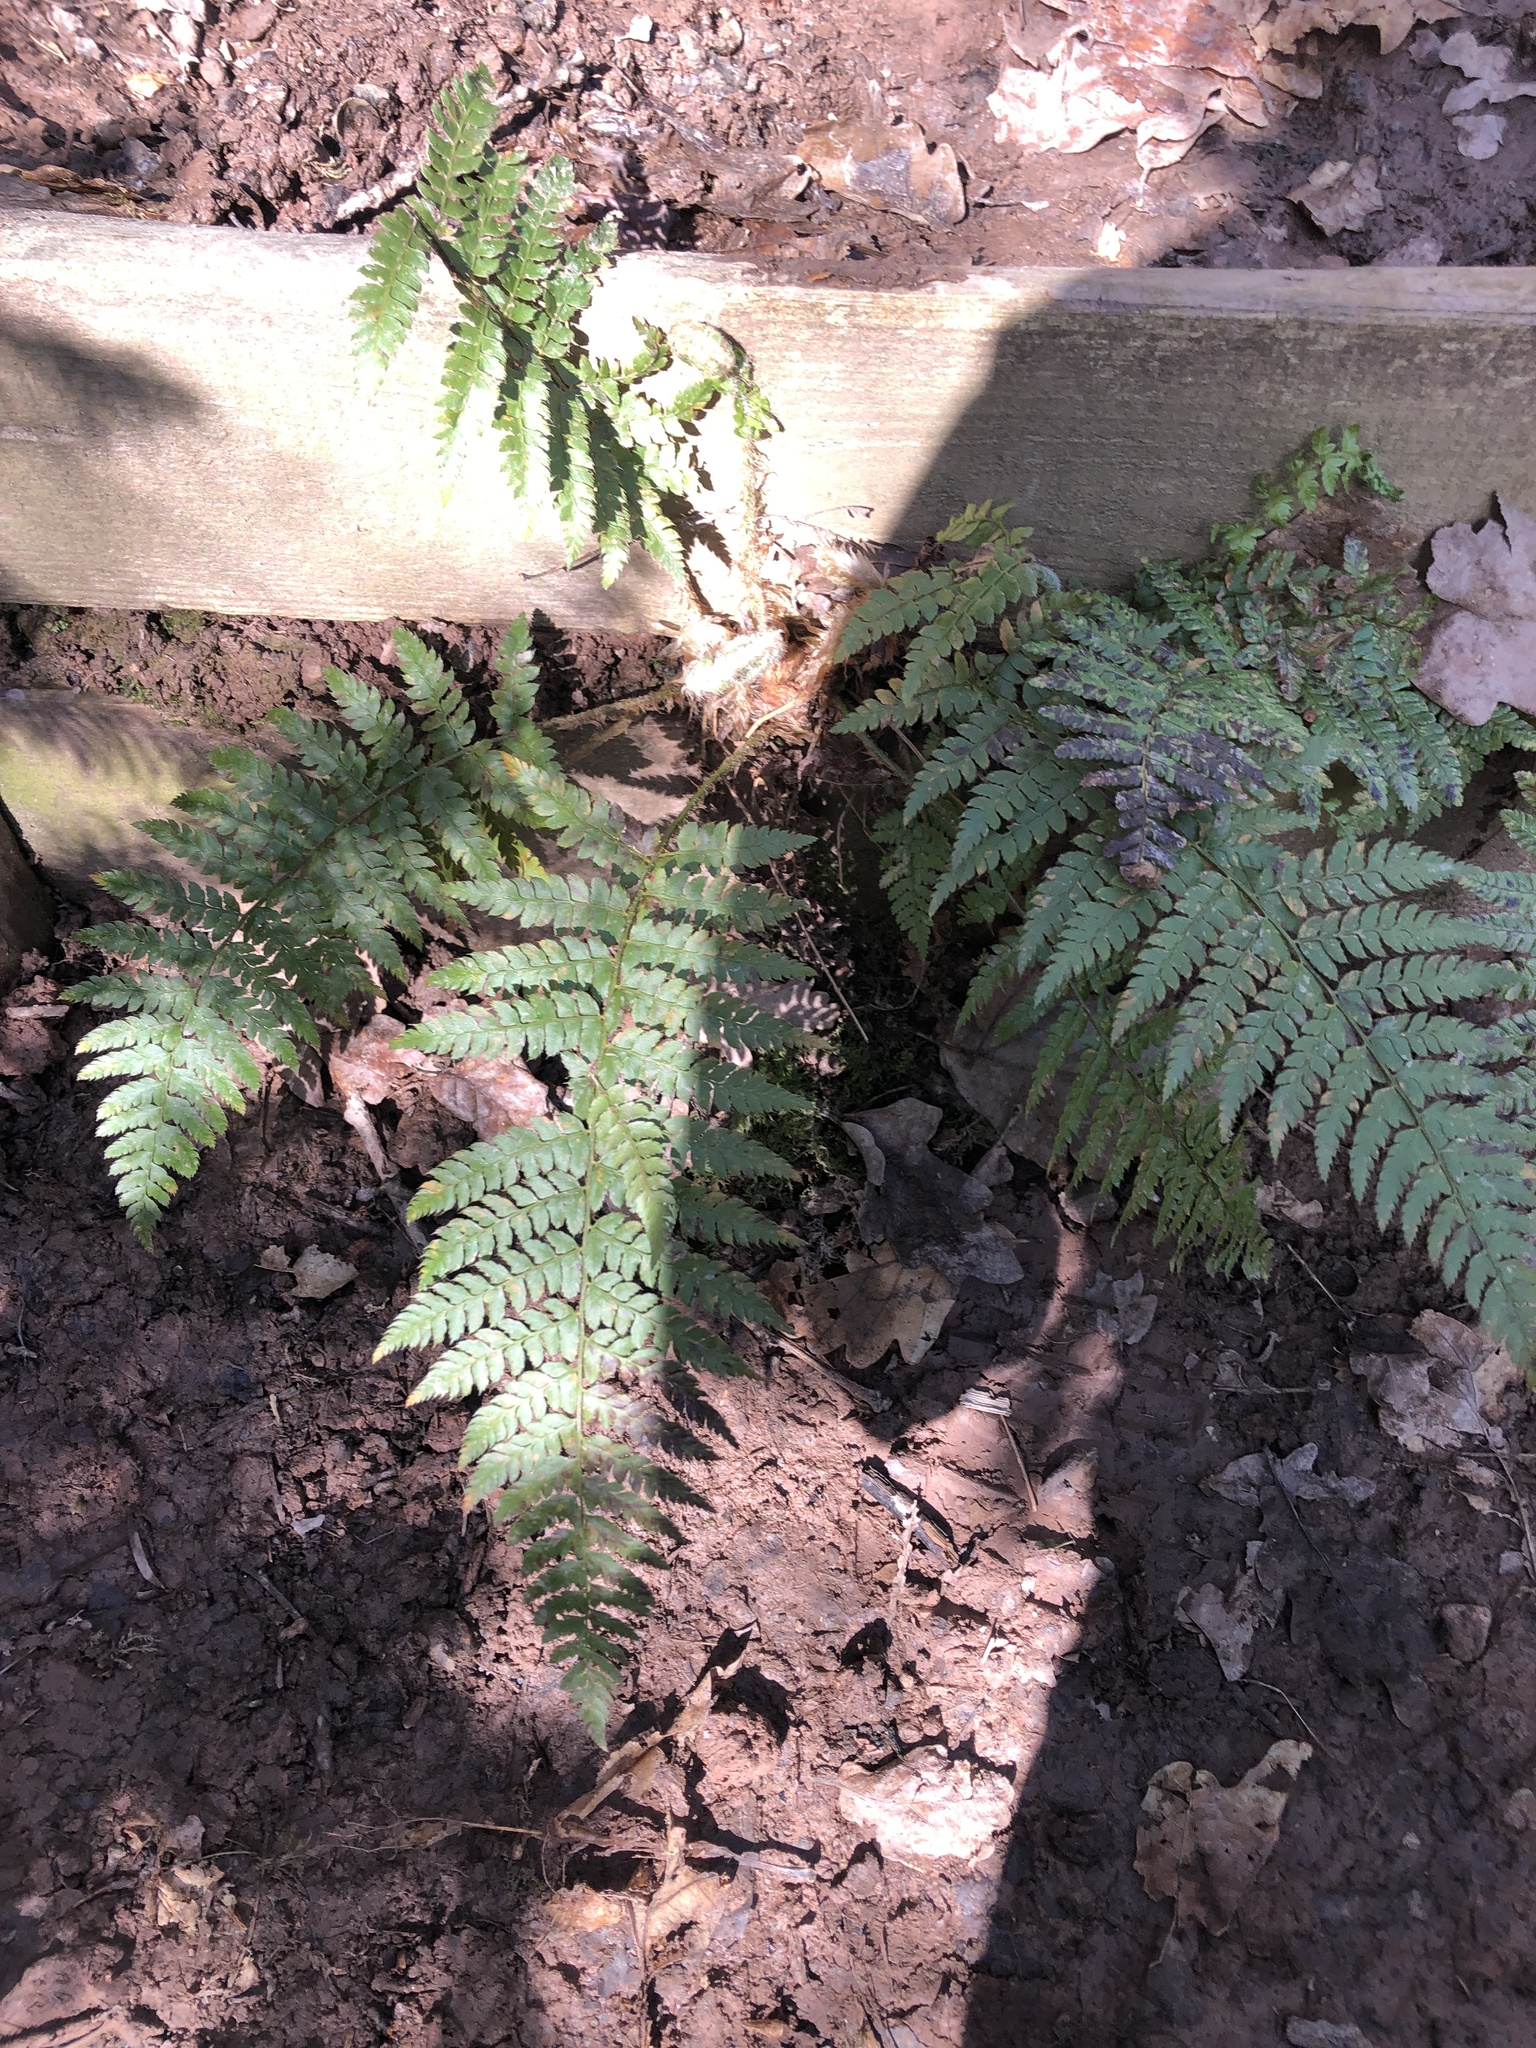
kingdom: Plantae
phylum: Tracheophyta
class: Polypodiopsida
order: Polypodiales
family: Dryopteridaceae
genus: Polystichum
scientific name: Polystichum setiferum
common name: Soft shield-fern
